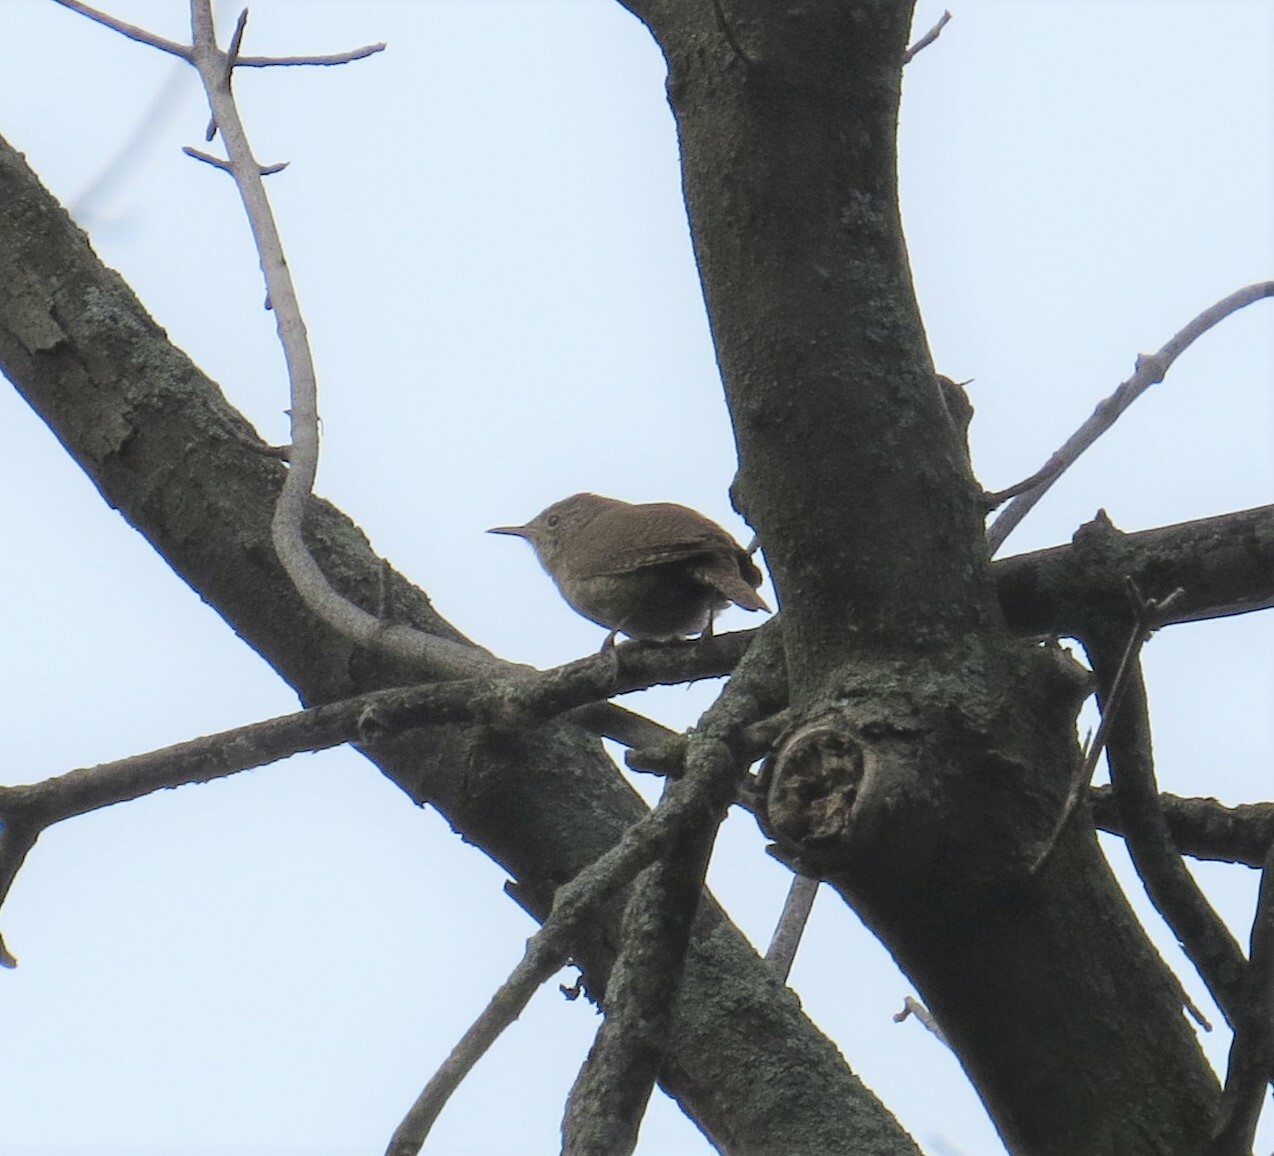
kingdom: Animalia
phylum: Chordata
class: Aves
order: Passeriformes
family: Troglodytidae
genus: Troglodytes
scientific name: Troglodytes aedon
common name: House wren
